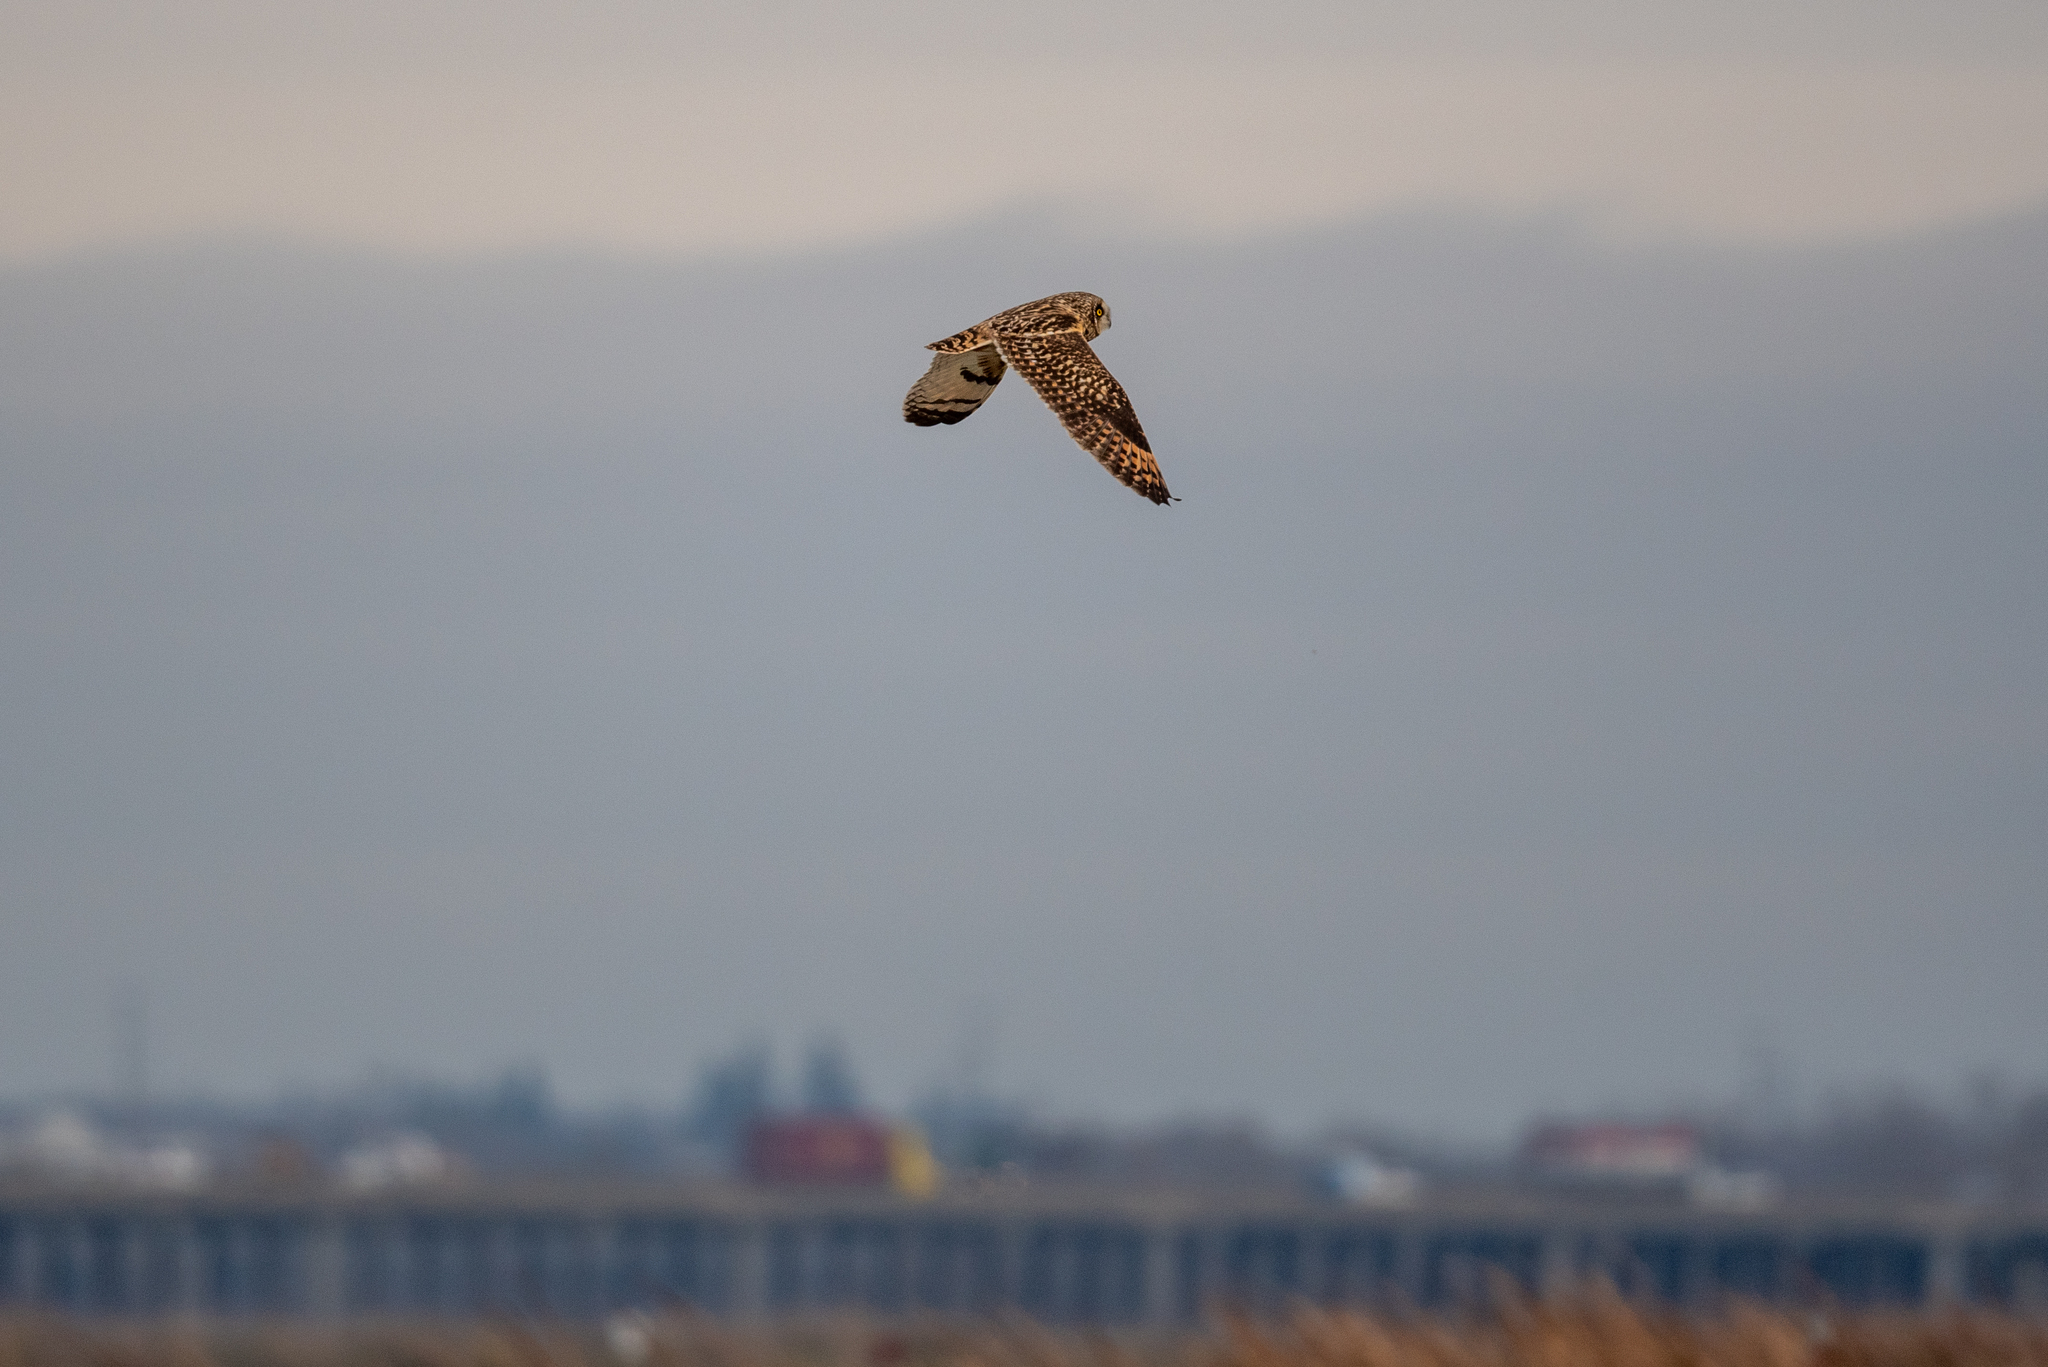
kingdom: Animalia
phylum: Chordata
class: Aves
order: Strigiformes
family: Strigidae
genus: Asio
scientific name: Asio flammeus
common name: Short-eared owl
